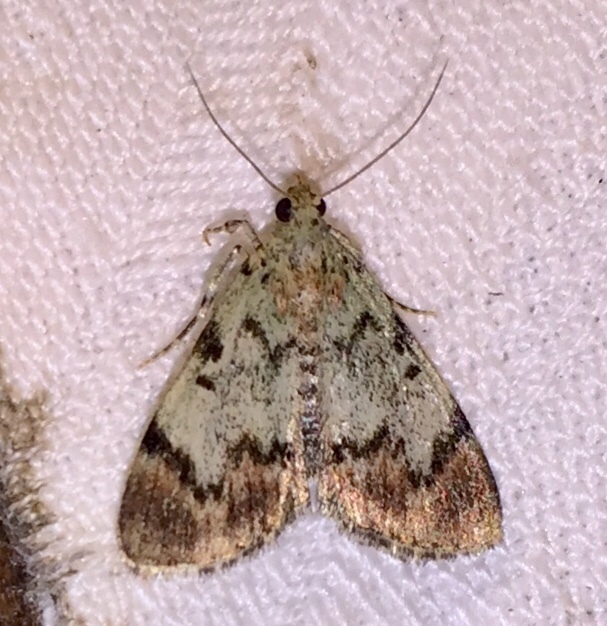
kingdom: Animalia
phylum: Arthropoda
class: Insecta
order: Lepidoptera
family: Pyralidae
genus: Epipaschia
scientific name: Epipaschia superatalis
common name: Dimorphic macalla moth
